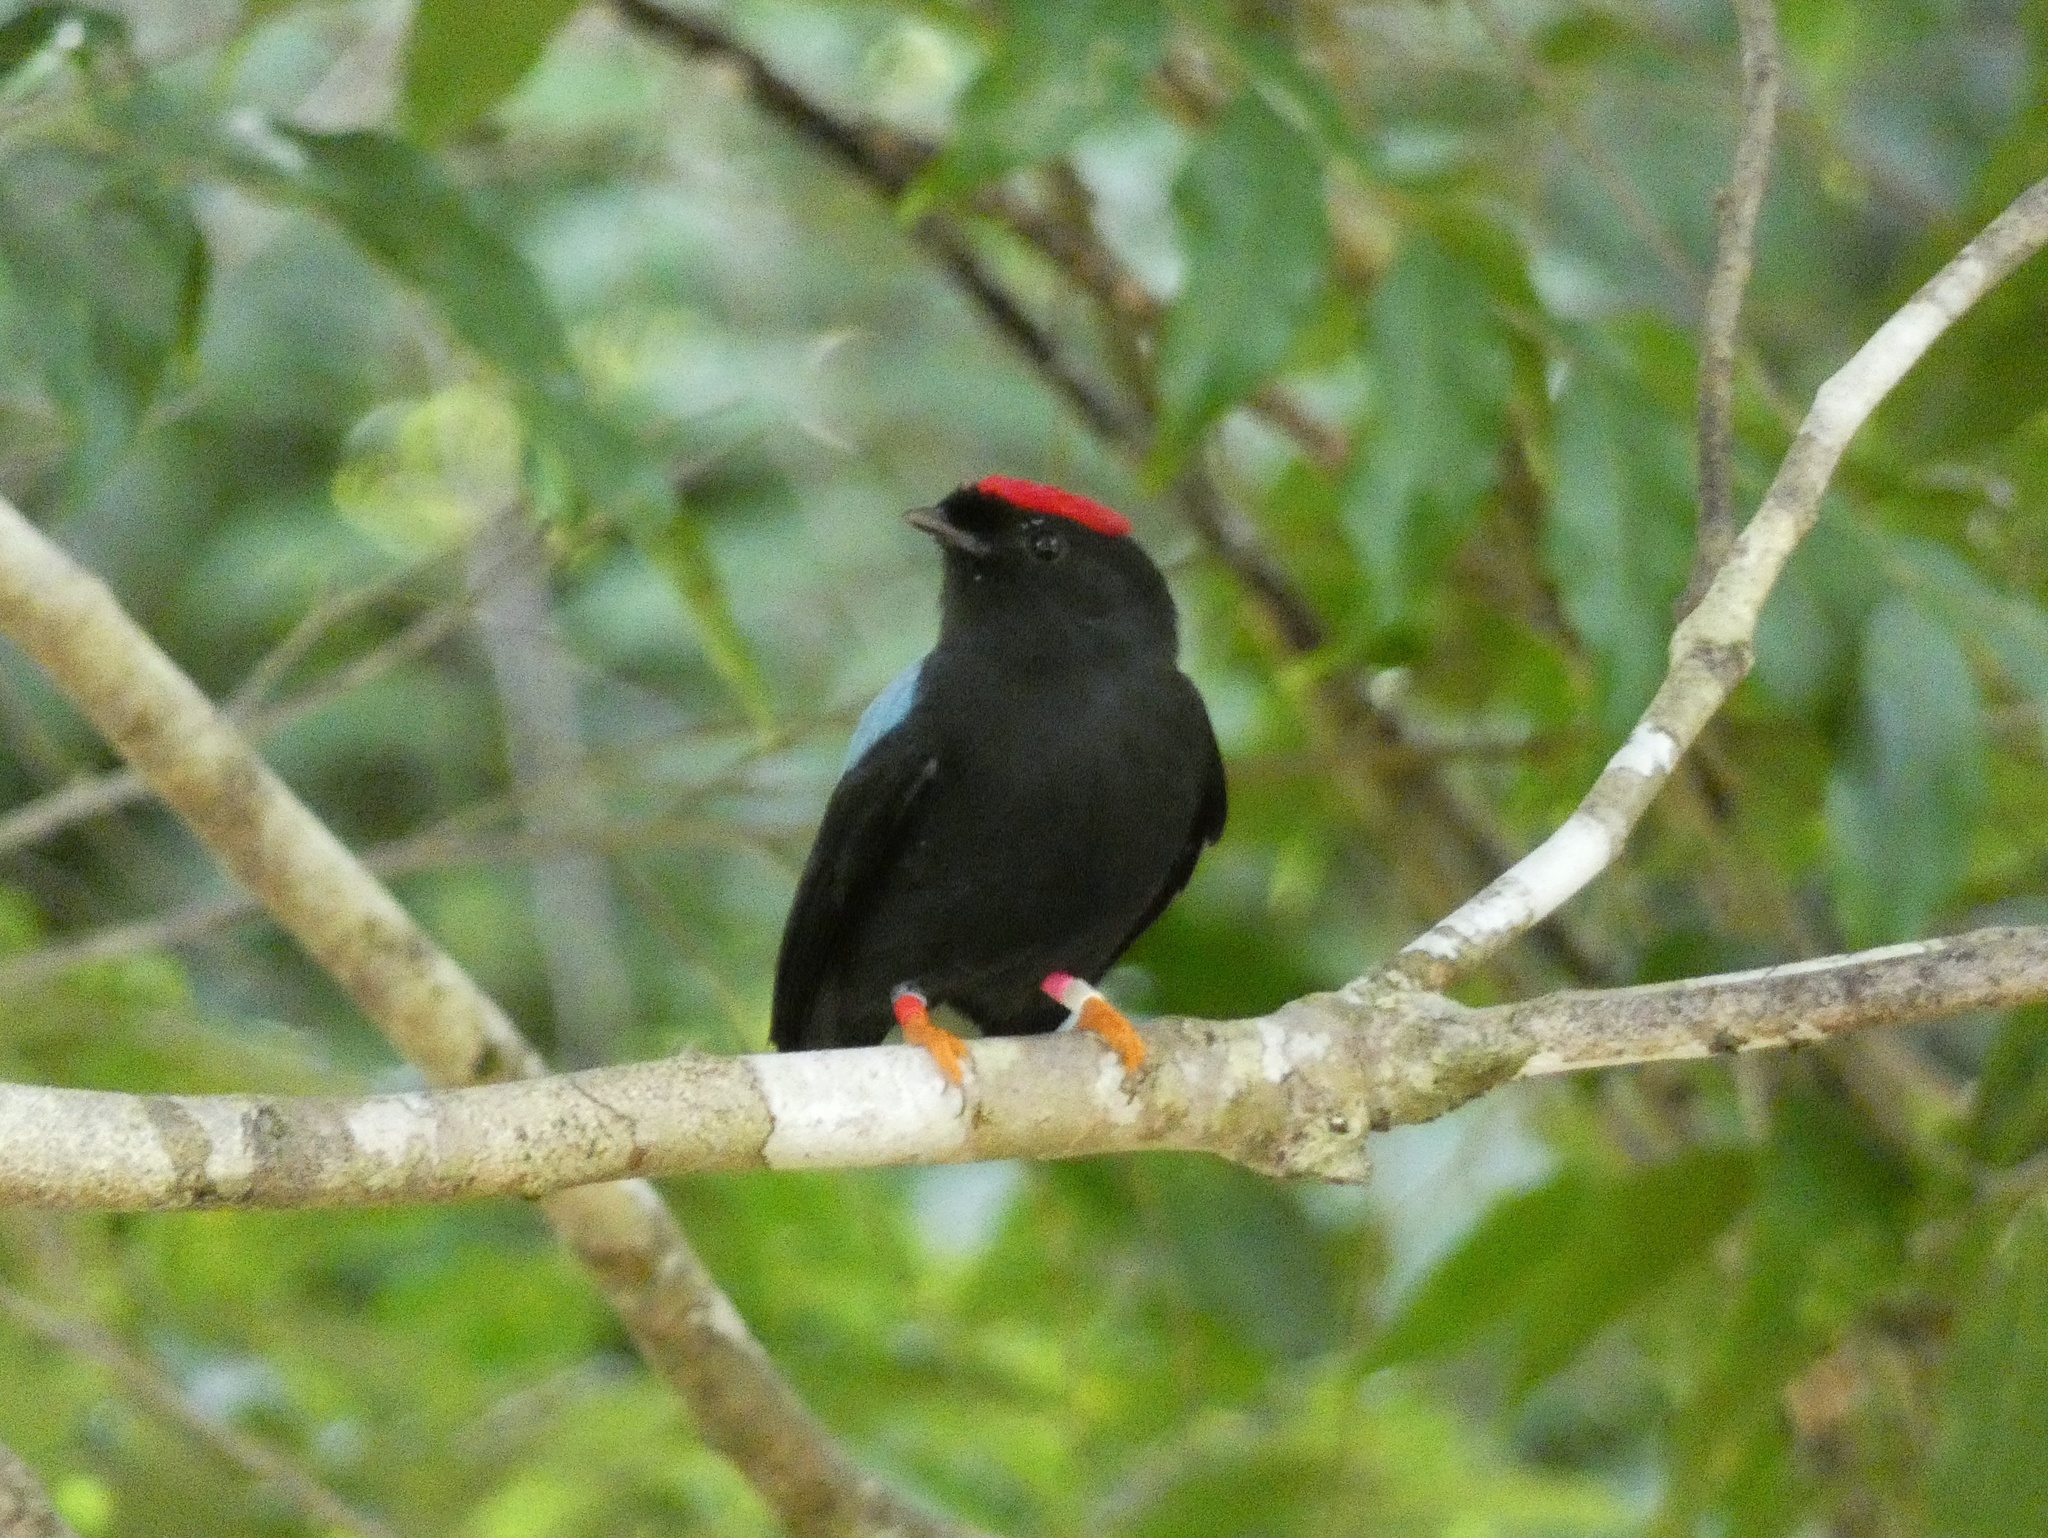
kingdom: Animalia
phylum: Chordata
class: Aves
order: Passeriformes
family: Pipridae
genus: Chiroxiphia
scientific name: Chiroxiphia lanceolata
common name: Lance-tailed manakin
